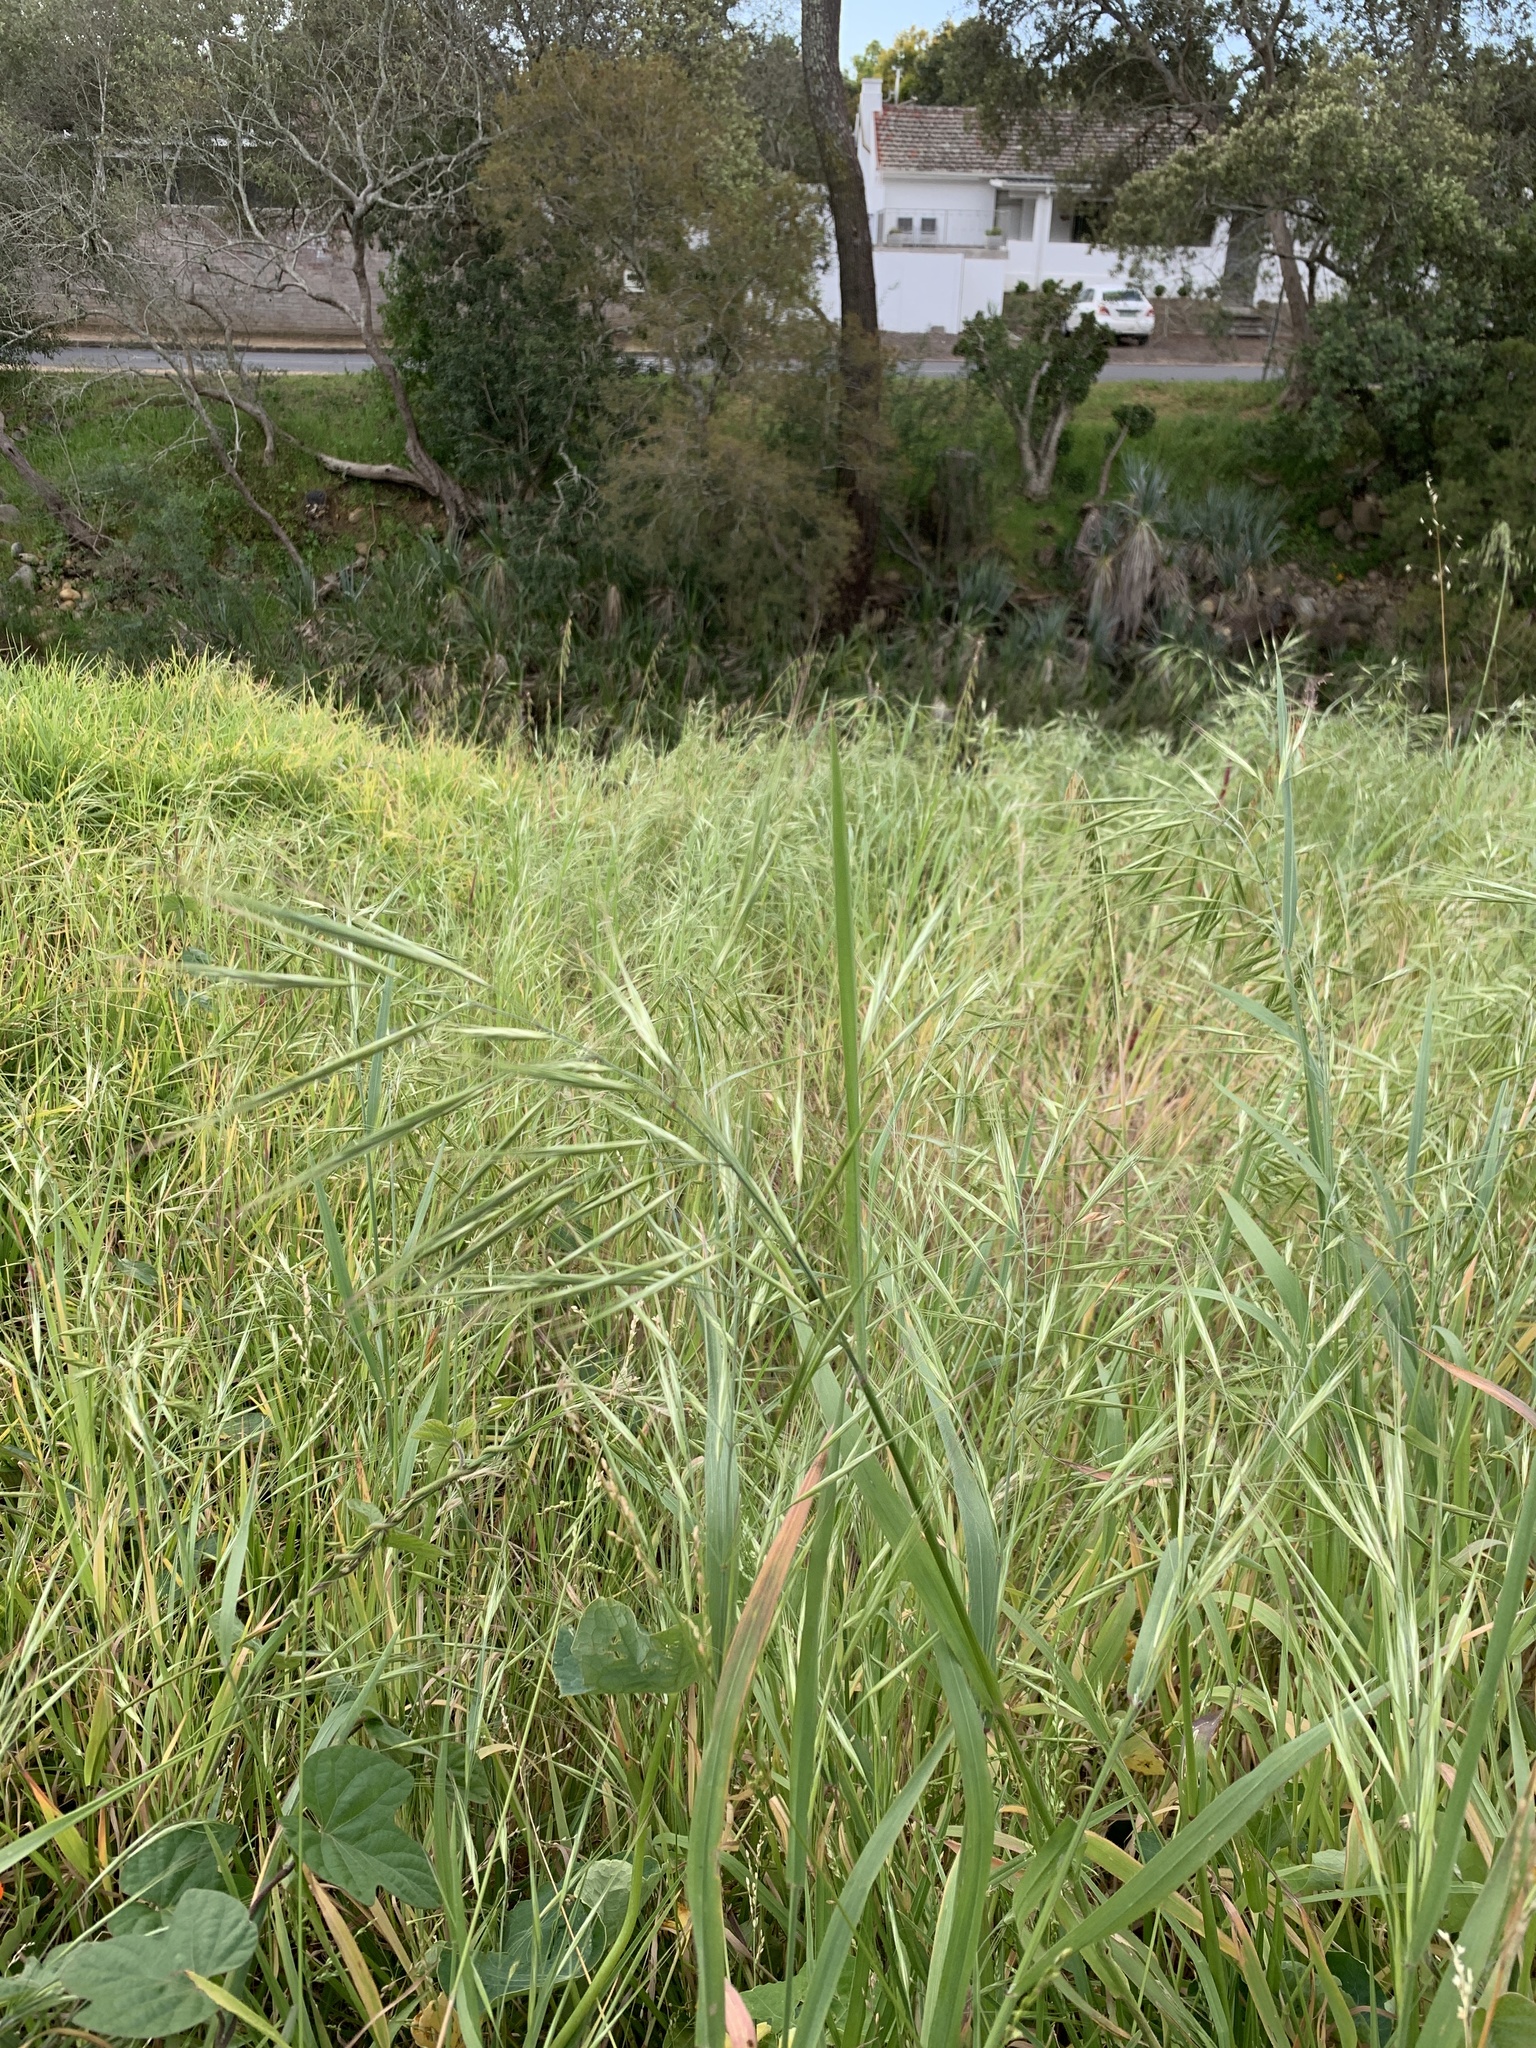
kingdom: Plantae
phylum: Tracheophyta
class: Liliopsida
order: Poales
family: Poaceae
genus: Bromus
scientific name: Bromus diandrus
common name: Ripgut brome
